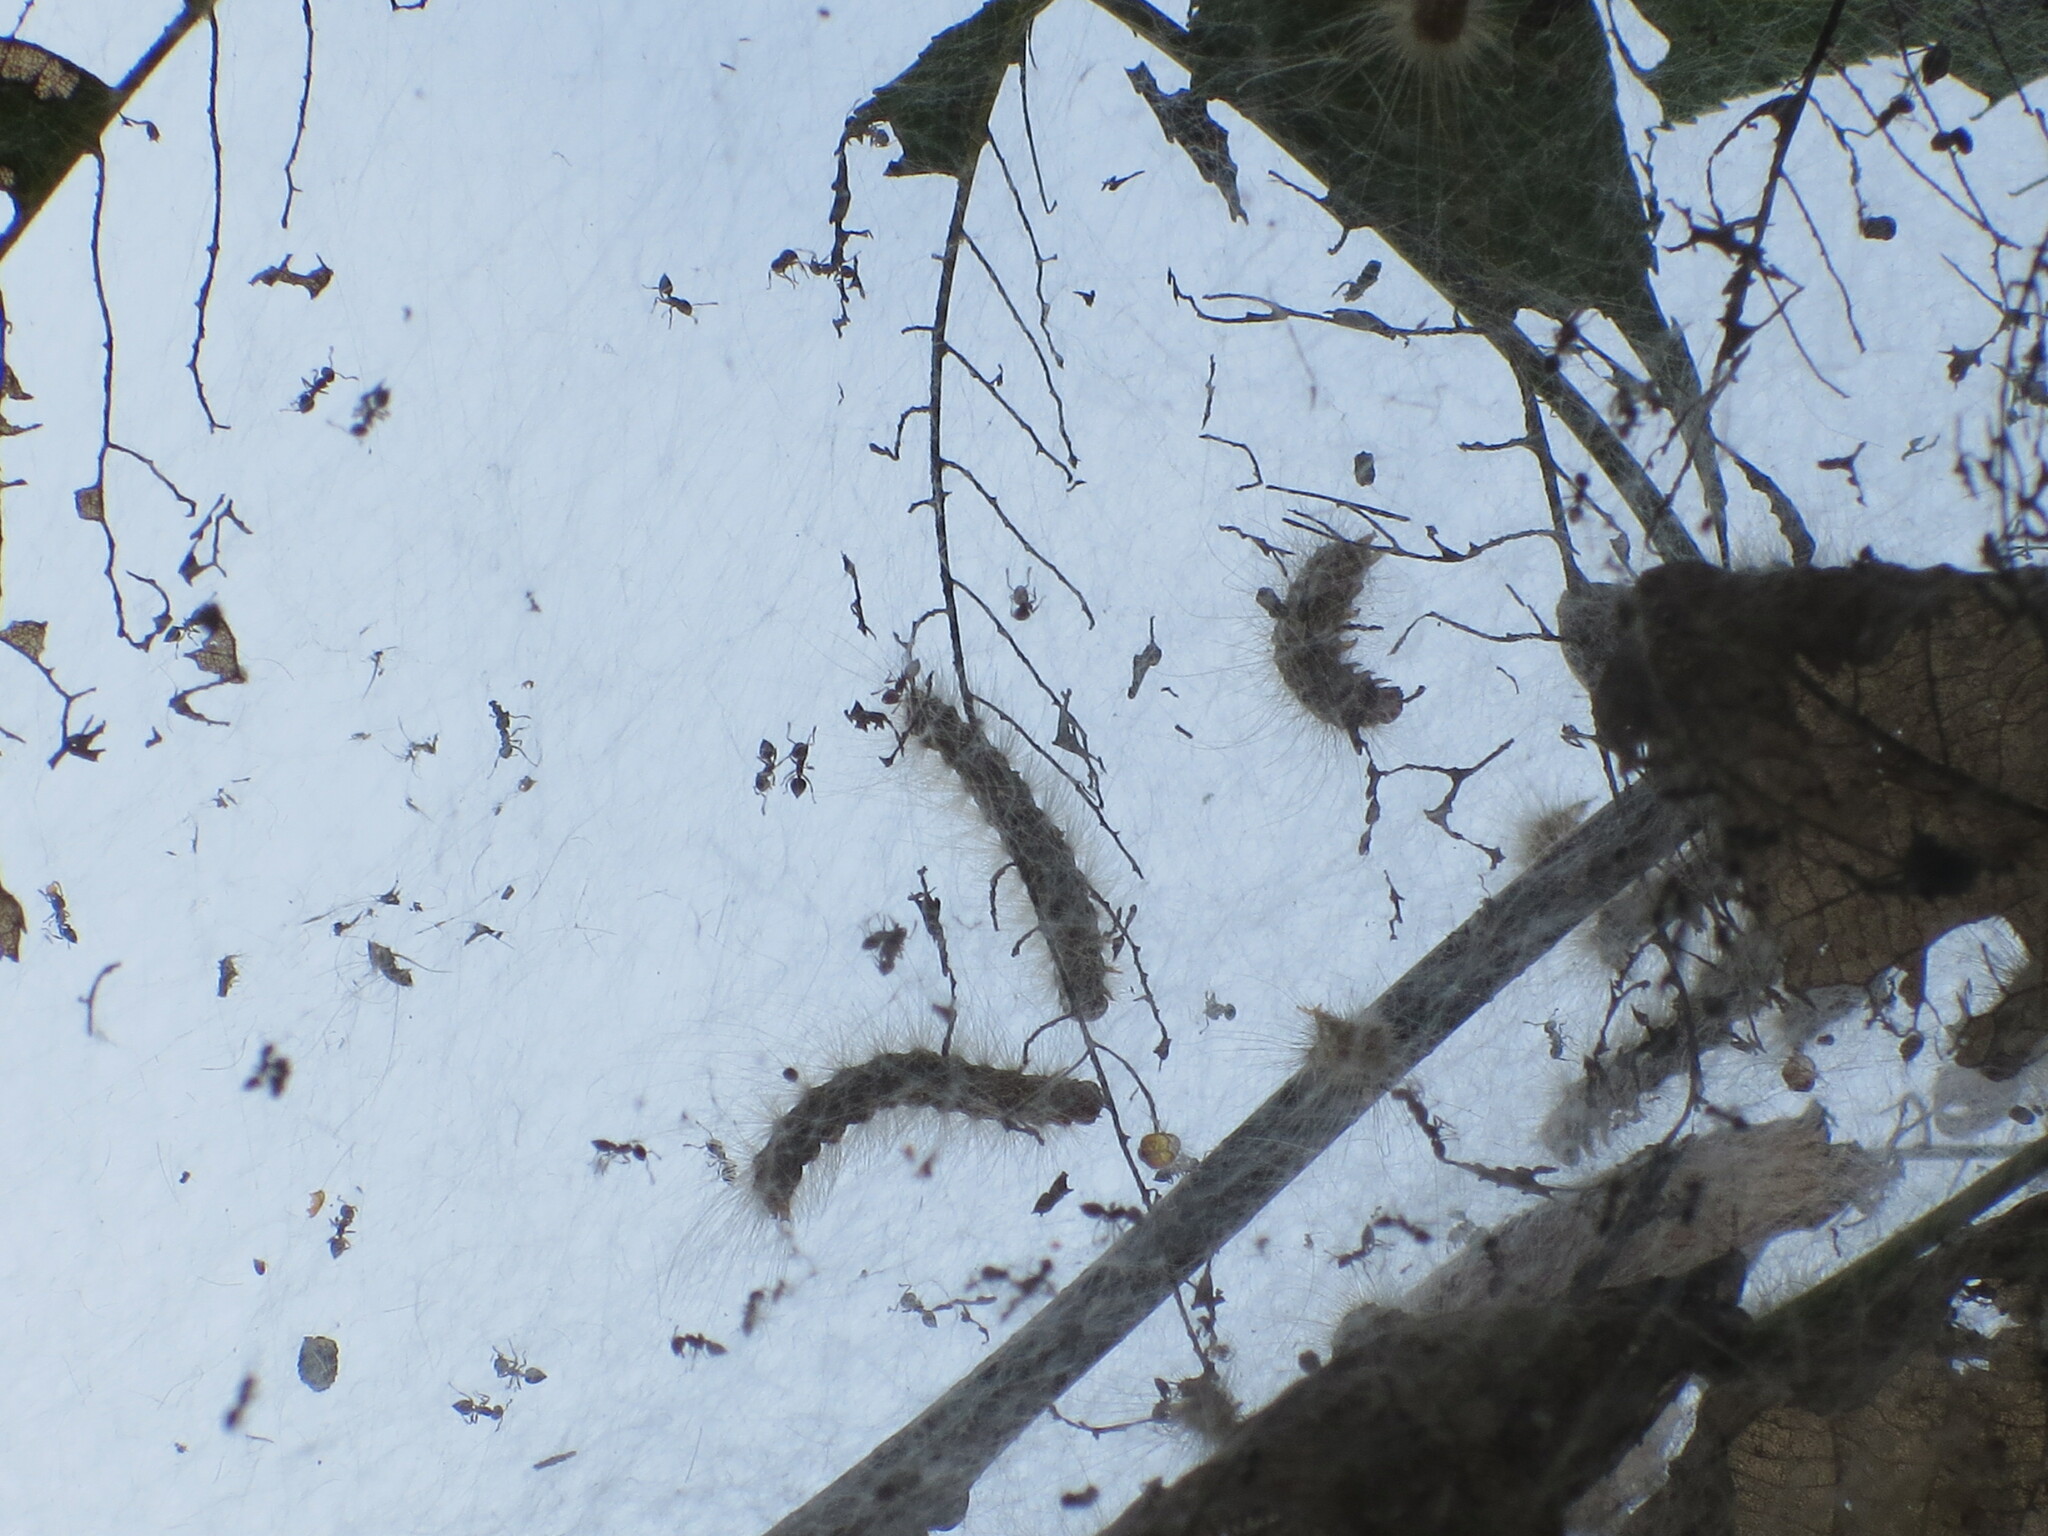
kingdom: Animalia
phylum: Arthropoda
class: Insecta
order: Lepidoptera
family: Erebidae
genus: Hyphantria
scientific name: Hyphantria cunea
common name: American white moth
